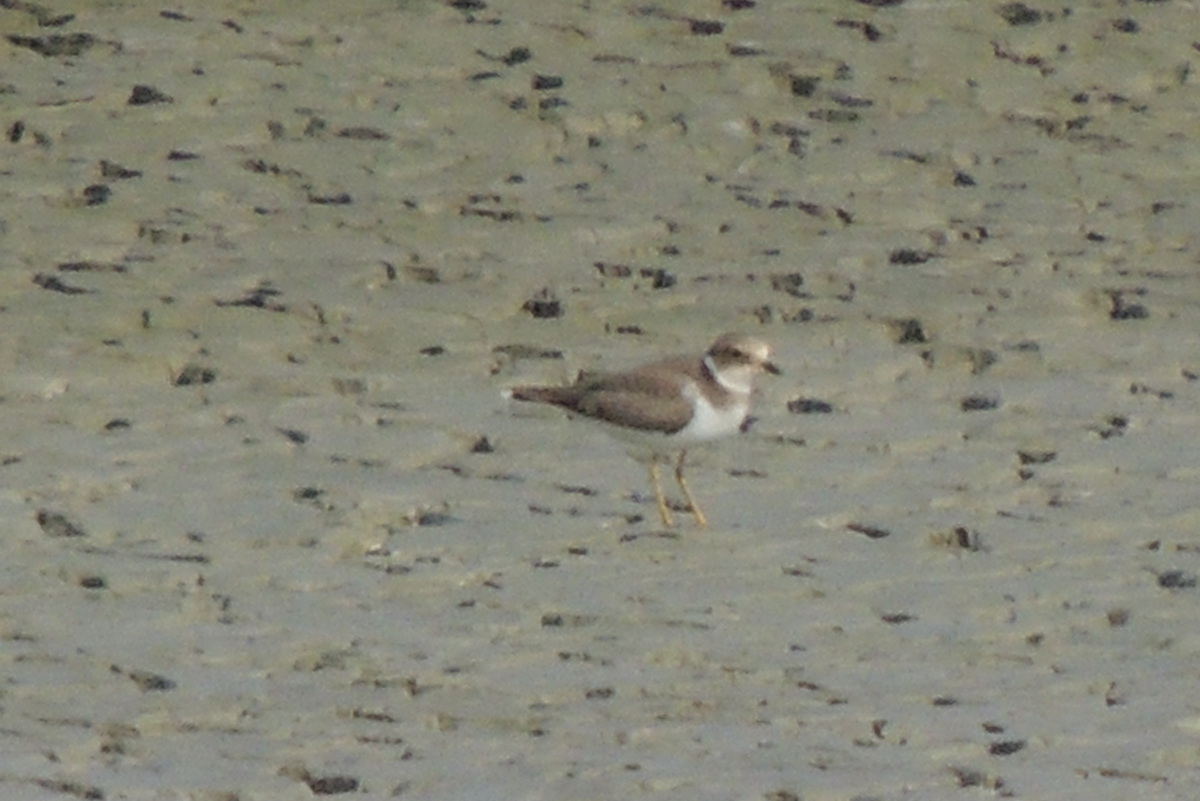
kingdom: Animalia
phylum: Chordata
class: Aves
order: Charadriiformes
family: Charadriidae
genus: Charadrius
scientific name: Charadrius dubius
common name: Little ringed plover
